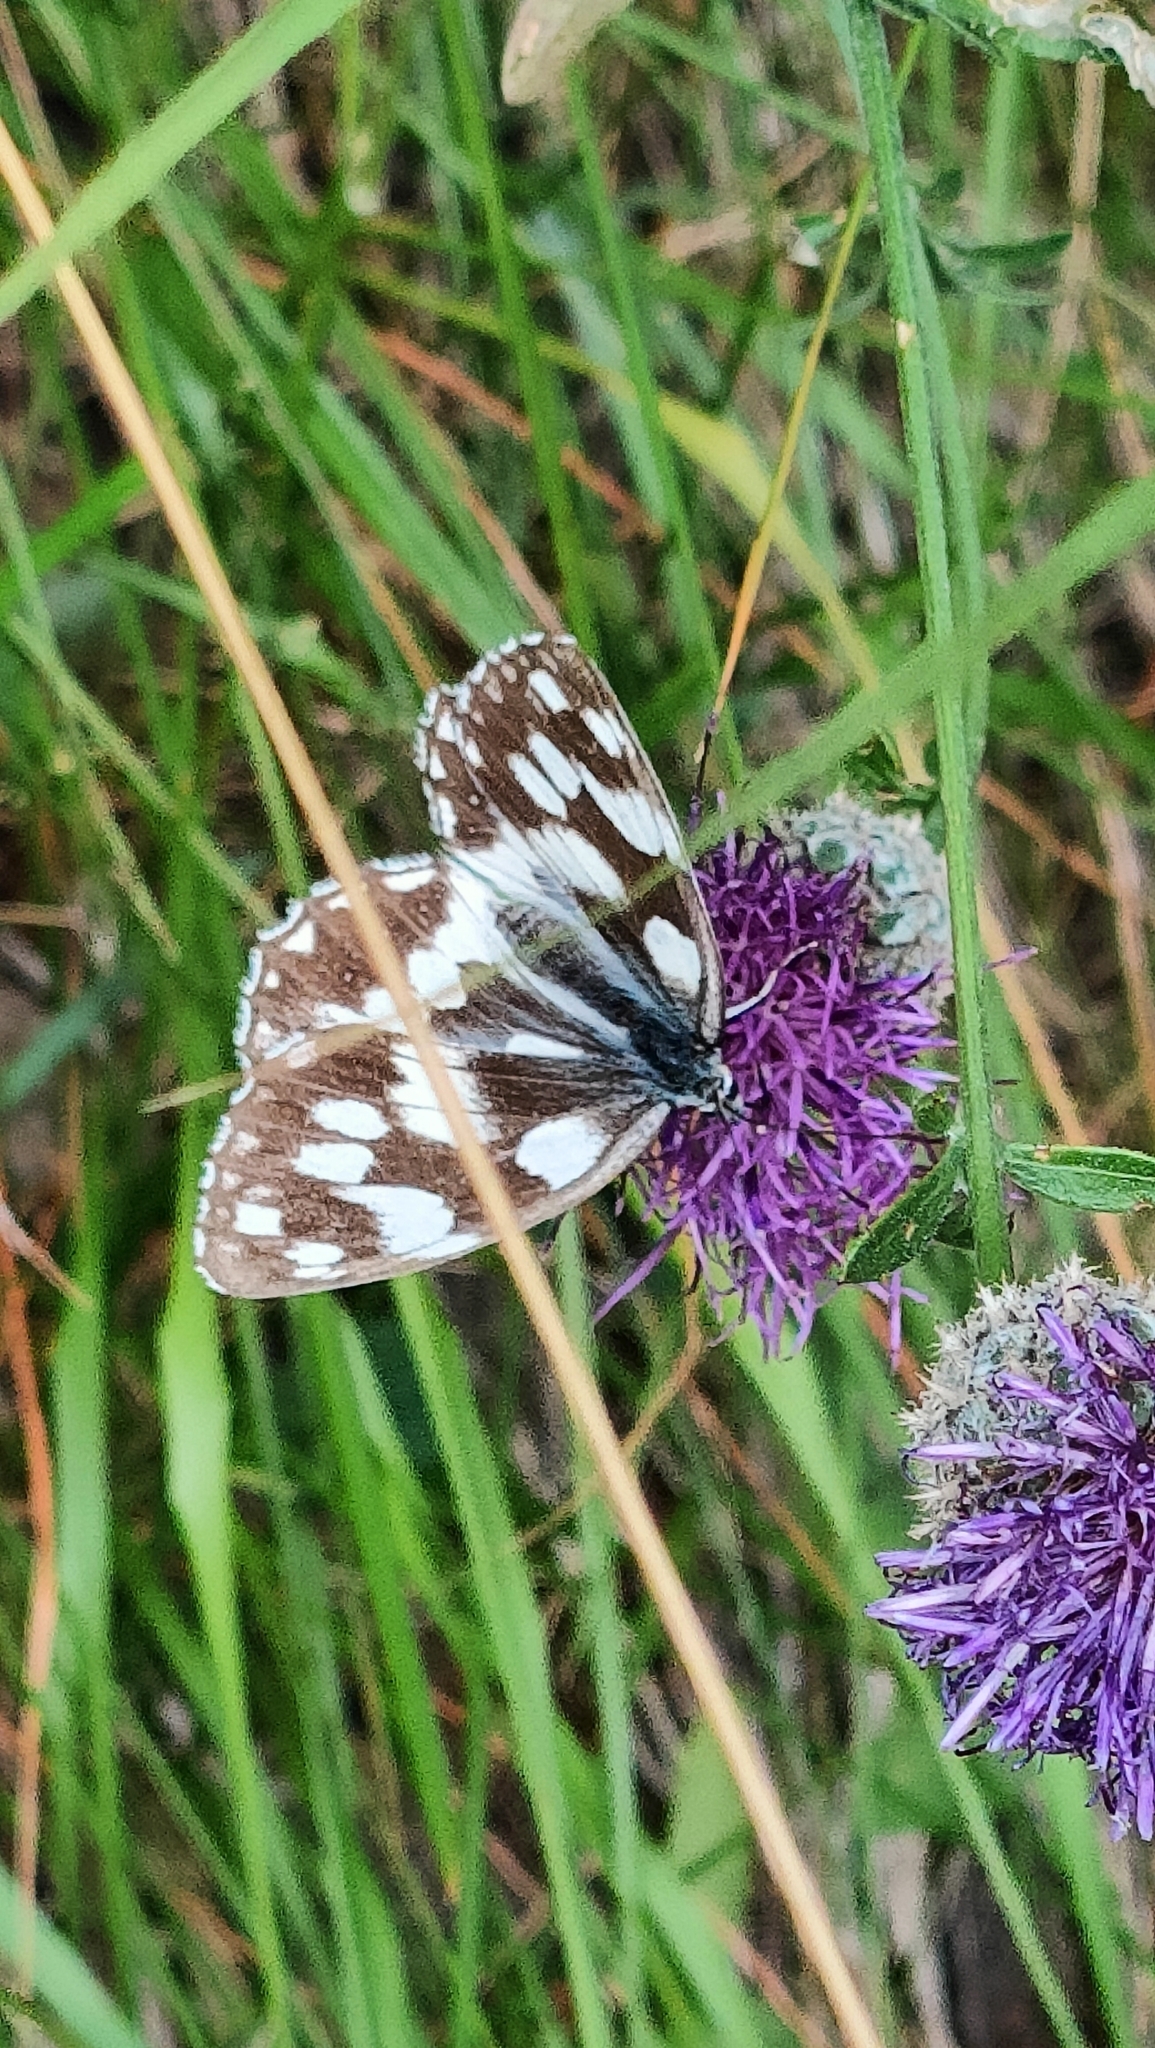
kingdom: Animalia
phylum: Arthropoda
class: Insecta
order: Lepidoptera
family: Nymphalidae
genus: Melanargia
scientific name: Melanargia galathea
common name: Marbled white
